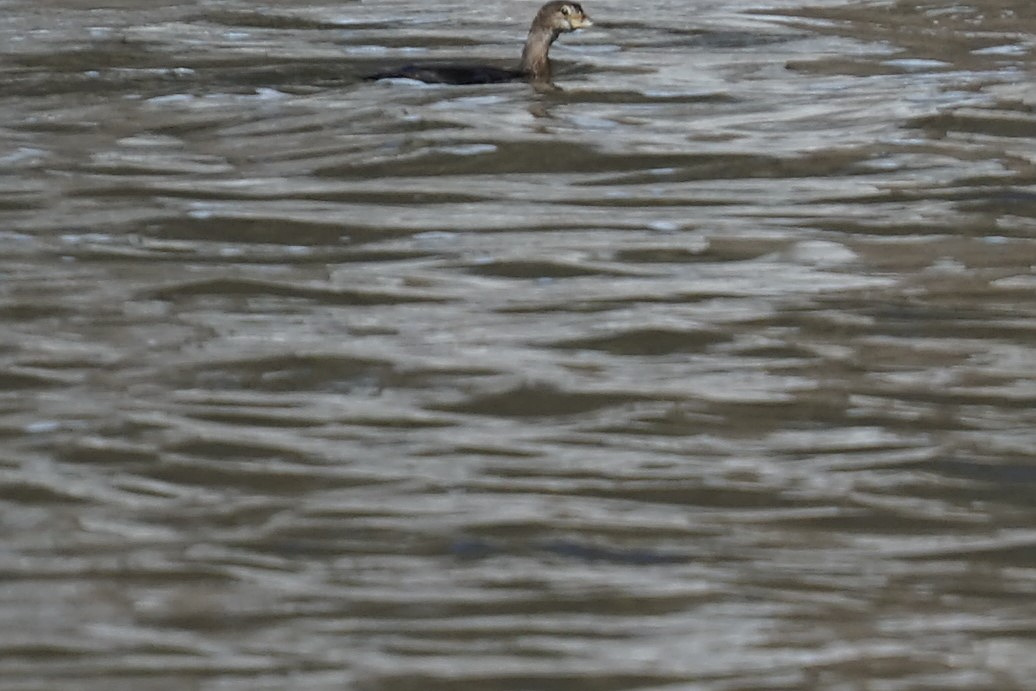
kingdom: Animalia
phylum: Chordata
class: Aves
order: Podicipediformes
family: Podicipedidae
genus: Podilymbus
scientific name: Podilymbus podiceps
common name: Pied-billed grebe
